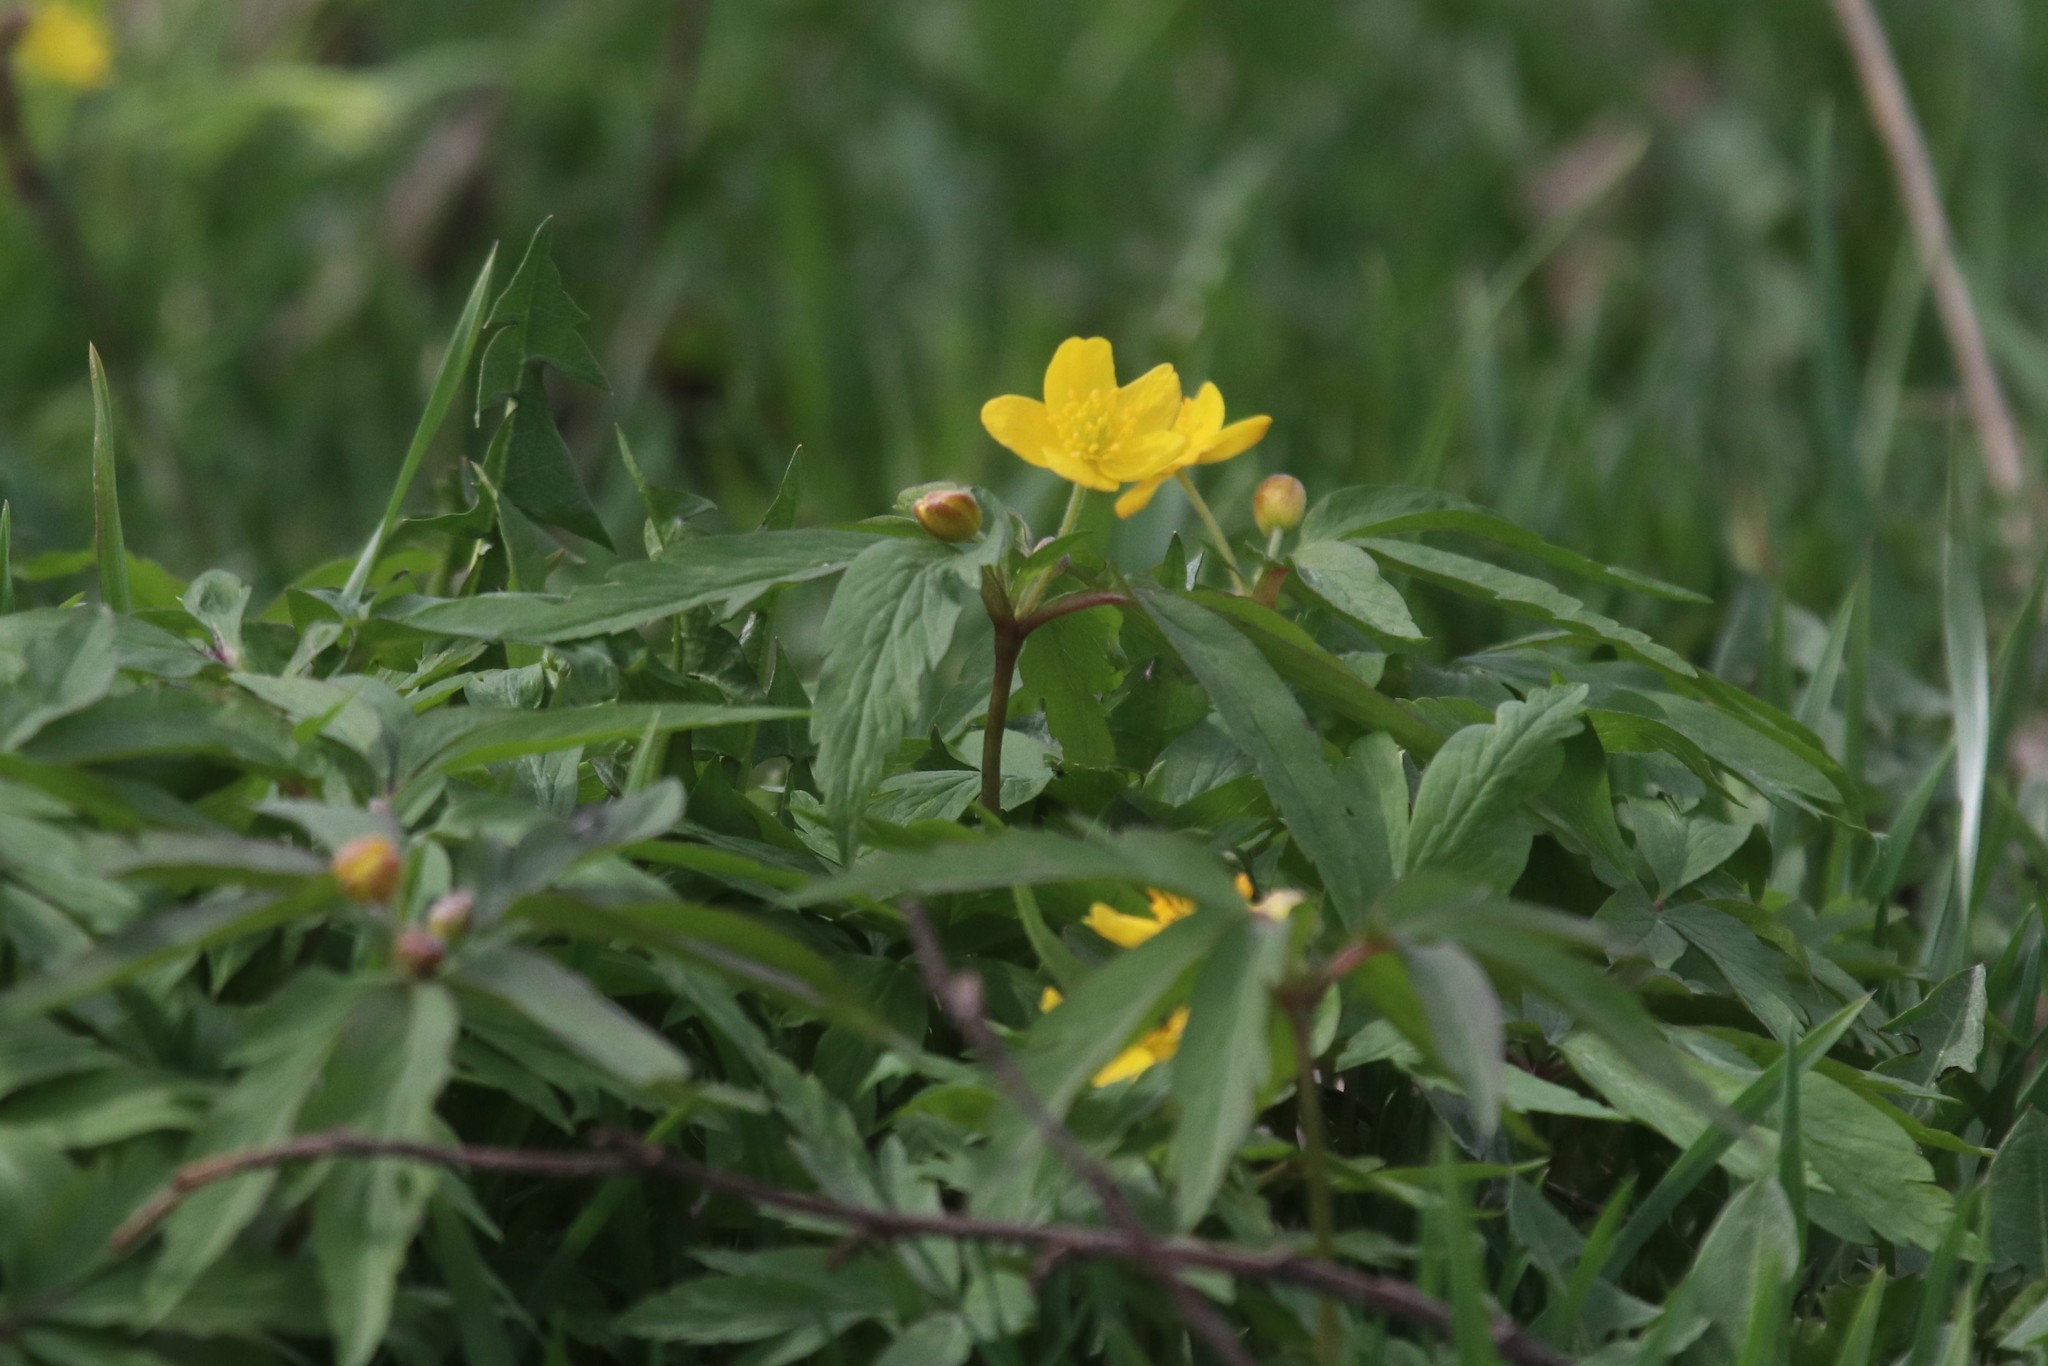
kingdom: Plantae
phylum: Tracheophyta
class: Magnoliopsida
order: Ranunculales
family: Ranunculaceae
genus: Anemone
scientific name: Anemone ranunculoides
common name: Yellow anemone
